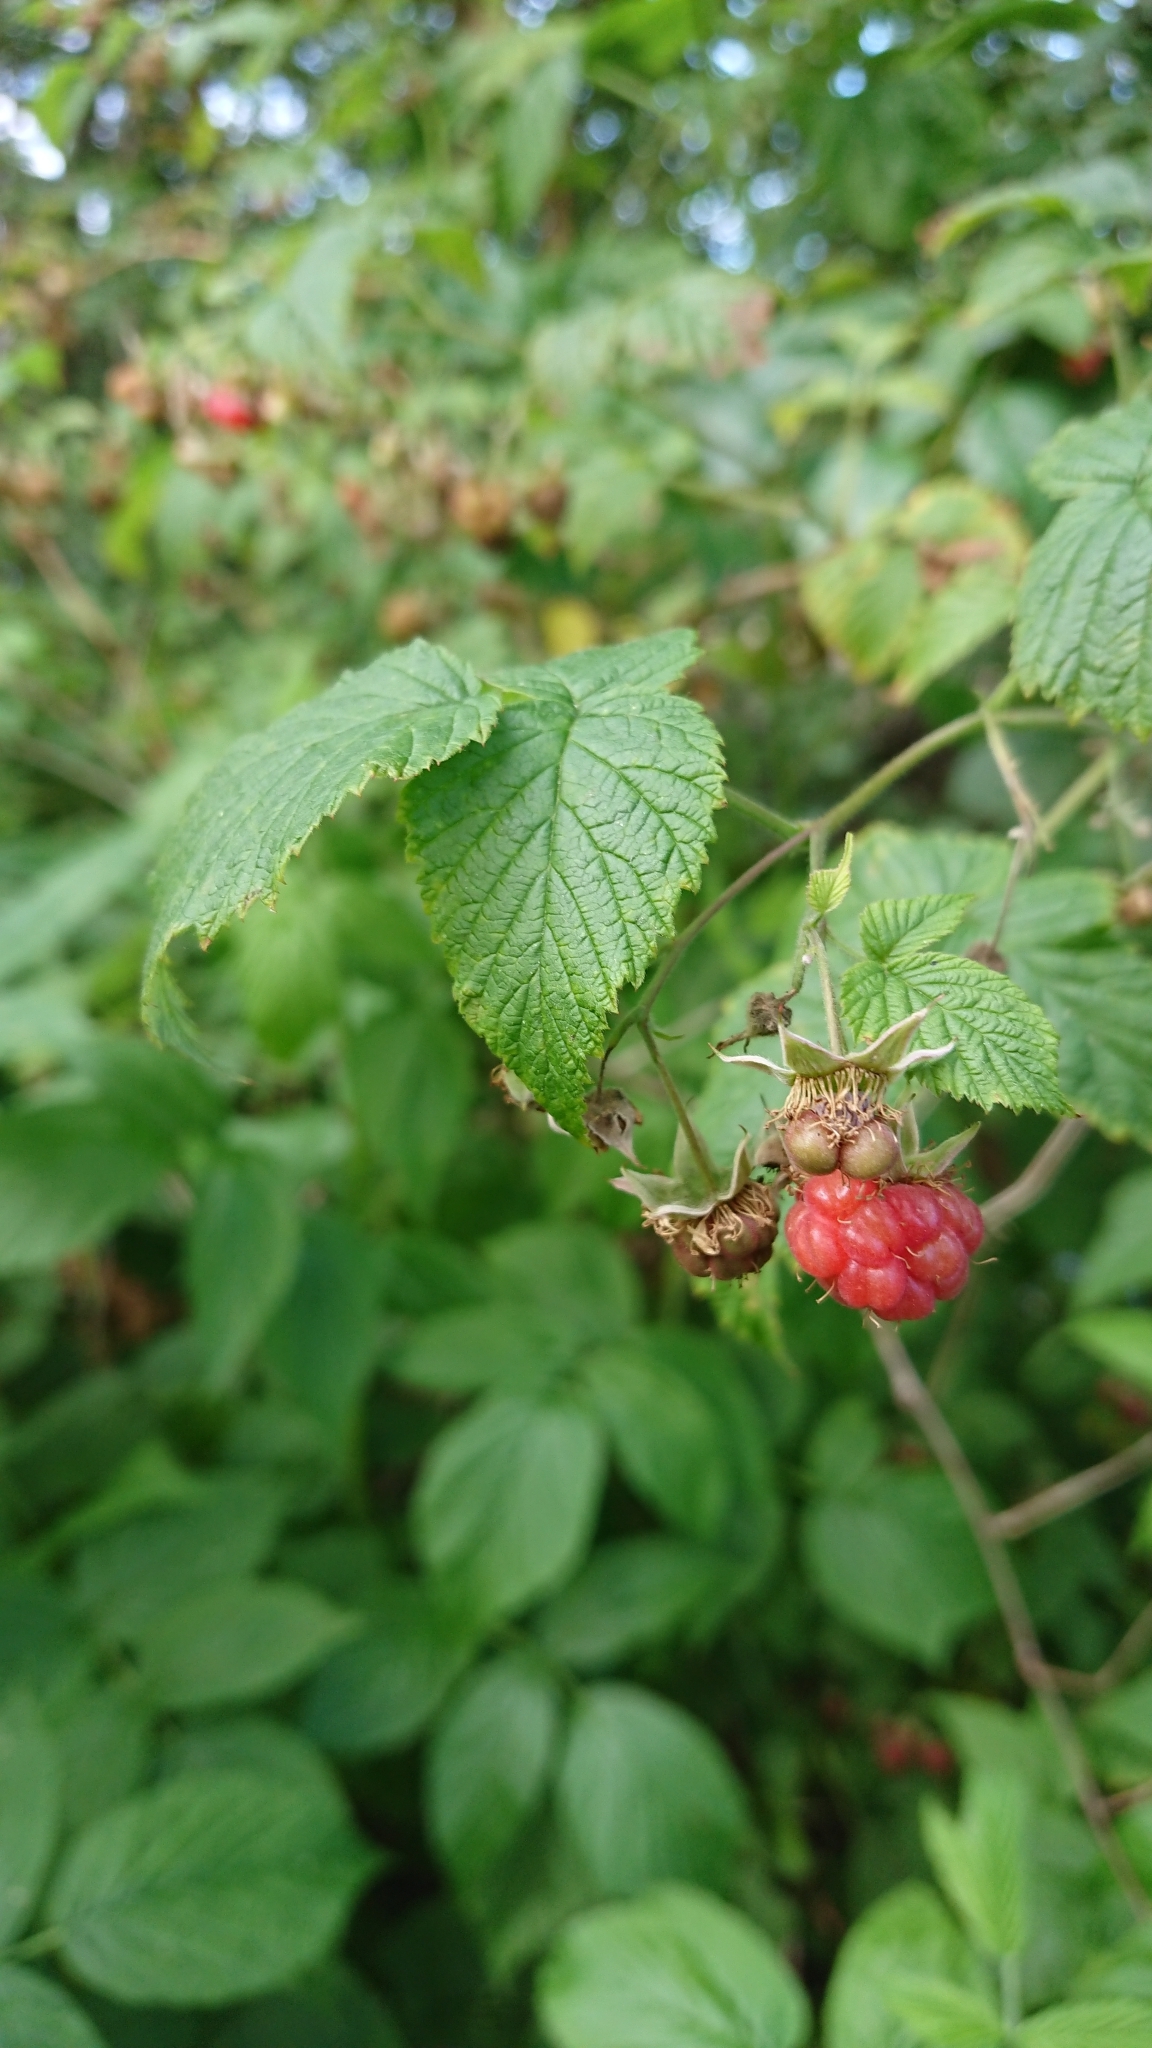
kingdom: Plantae
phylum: Tracheophyta
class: Magnoliopsida
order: Rosales
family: Rosaceae
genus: Rubus
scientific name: Rubus idaeus
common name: Raspberry
